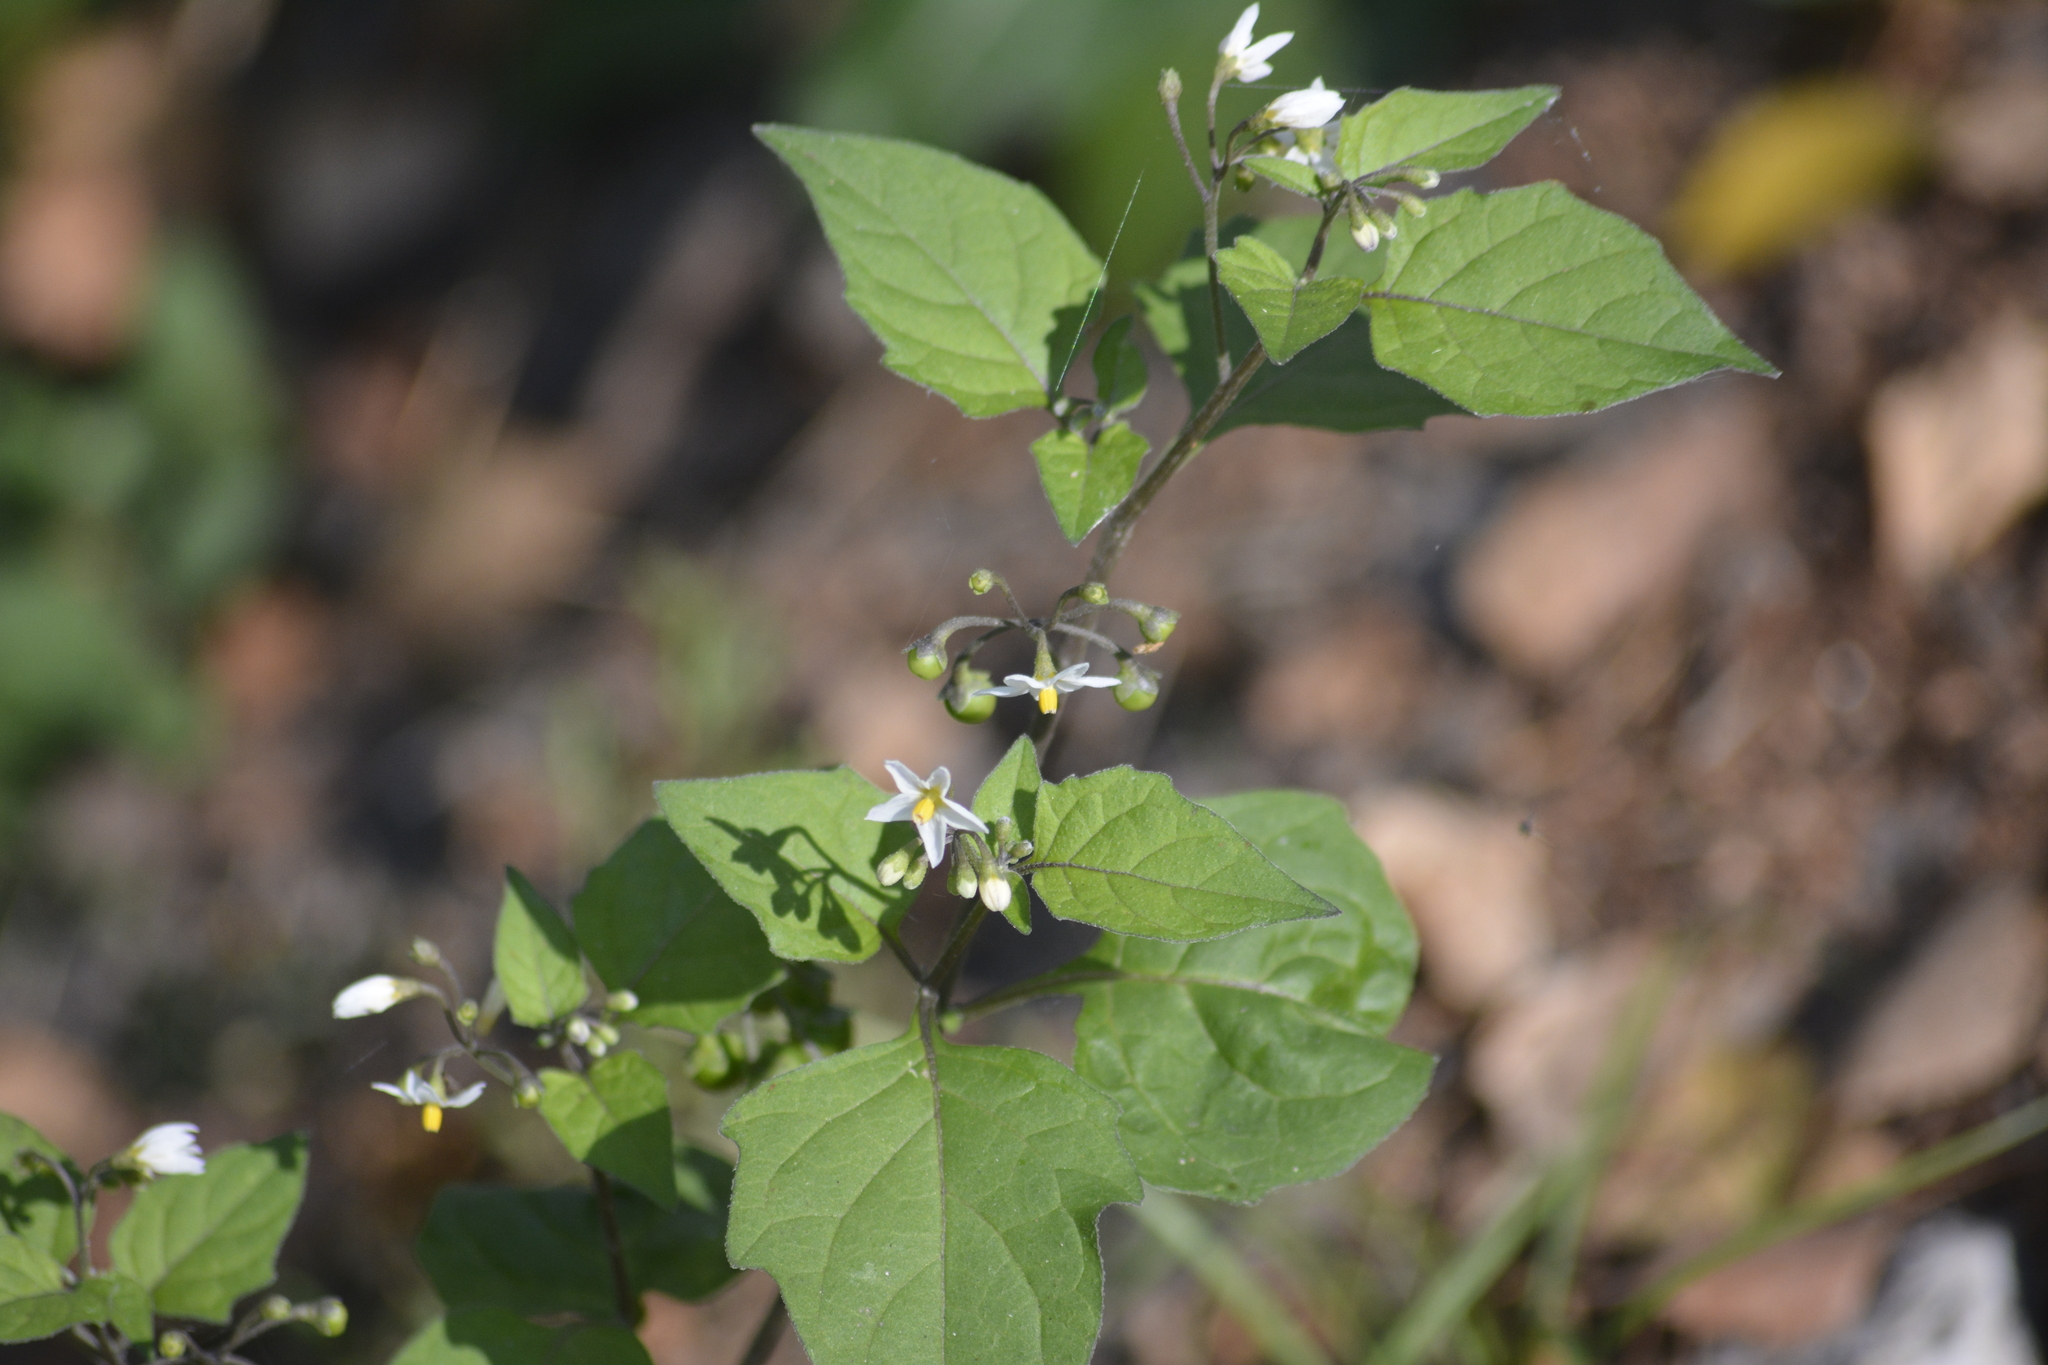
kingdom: Plantae
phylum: Tracheophyta
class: Magnoliopsida
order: Solanales
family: Solanaceae
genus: Solanum
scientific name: Solanum nigrum
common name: Black nightshade
